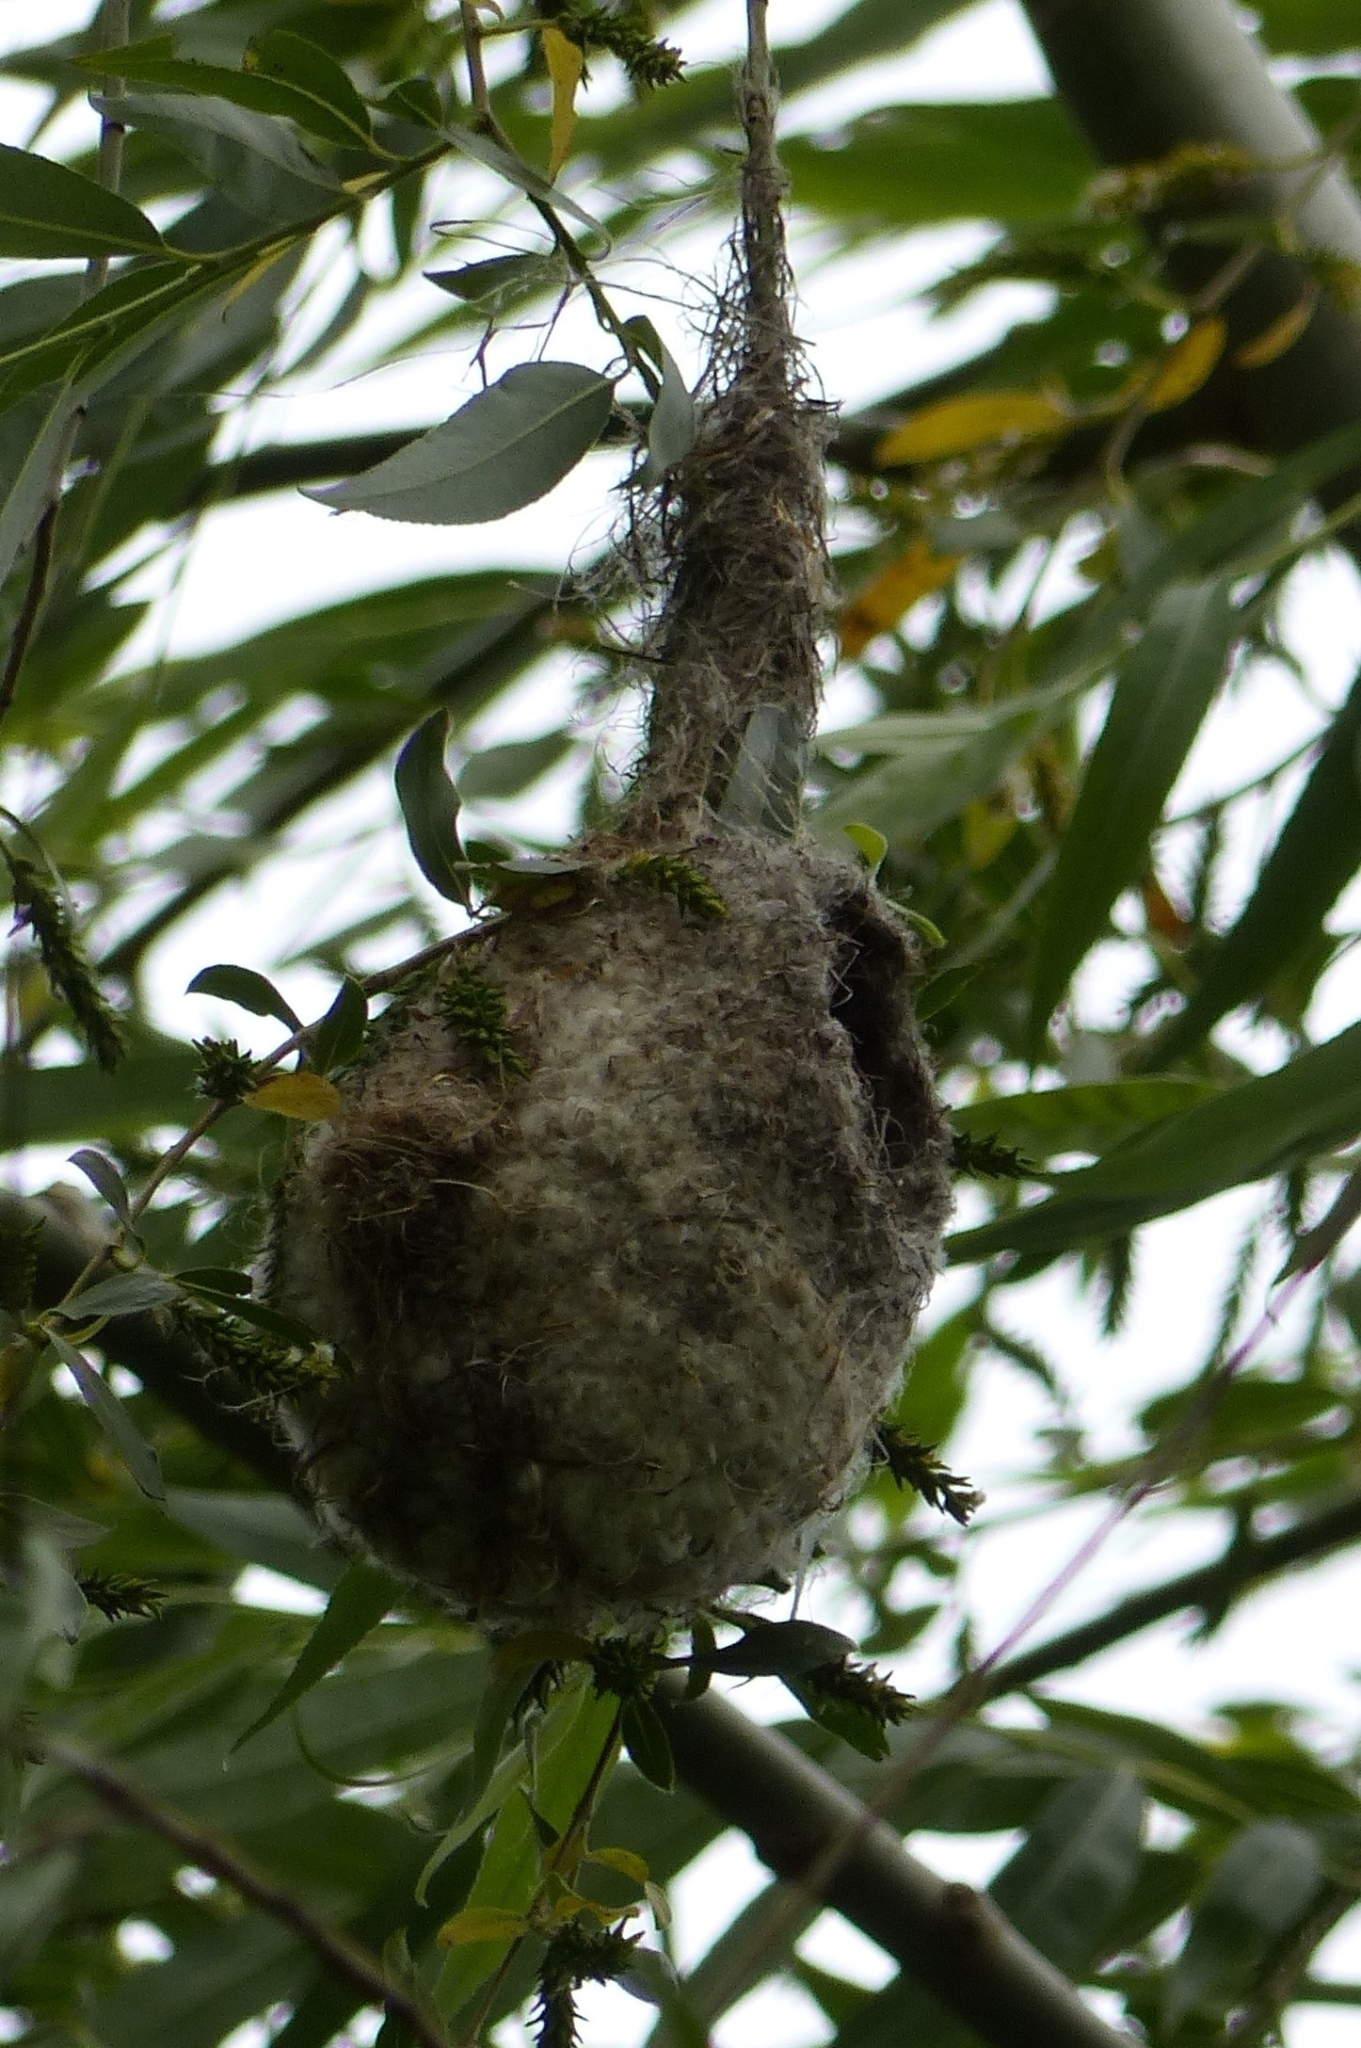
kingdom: Animalia
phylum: Chordata
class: Aves
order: Passeriformes
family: Remizidae
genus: Remiz
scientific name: Remiz pendulinus
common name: Eurasian penduline tit
